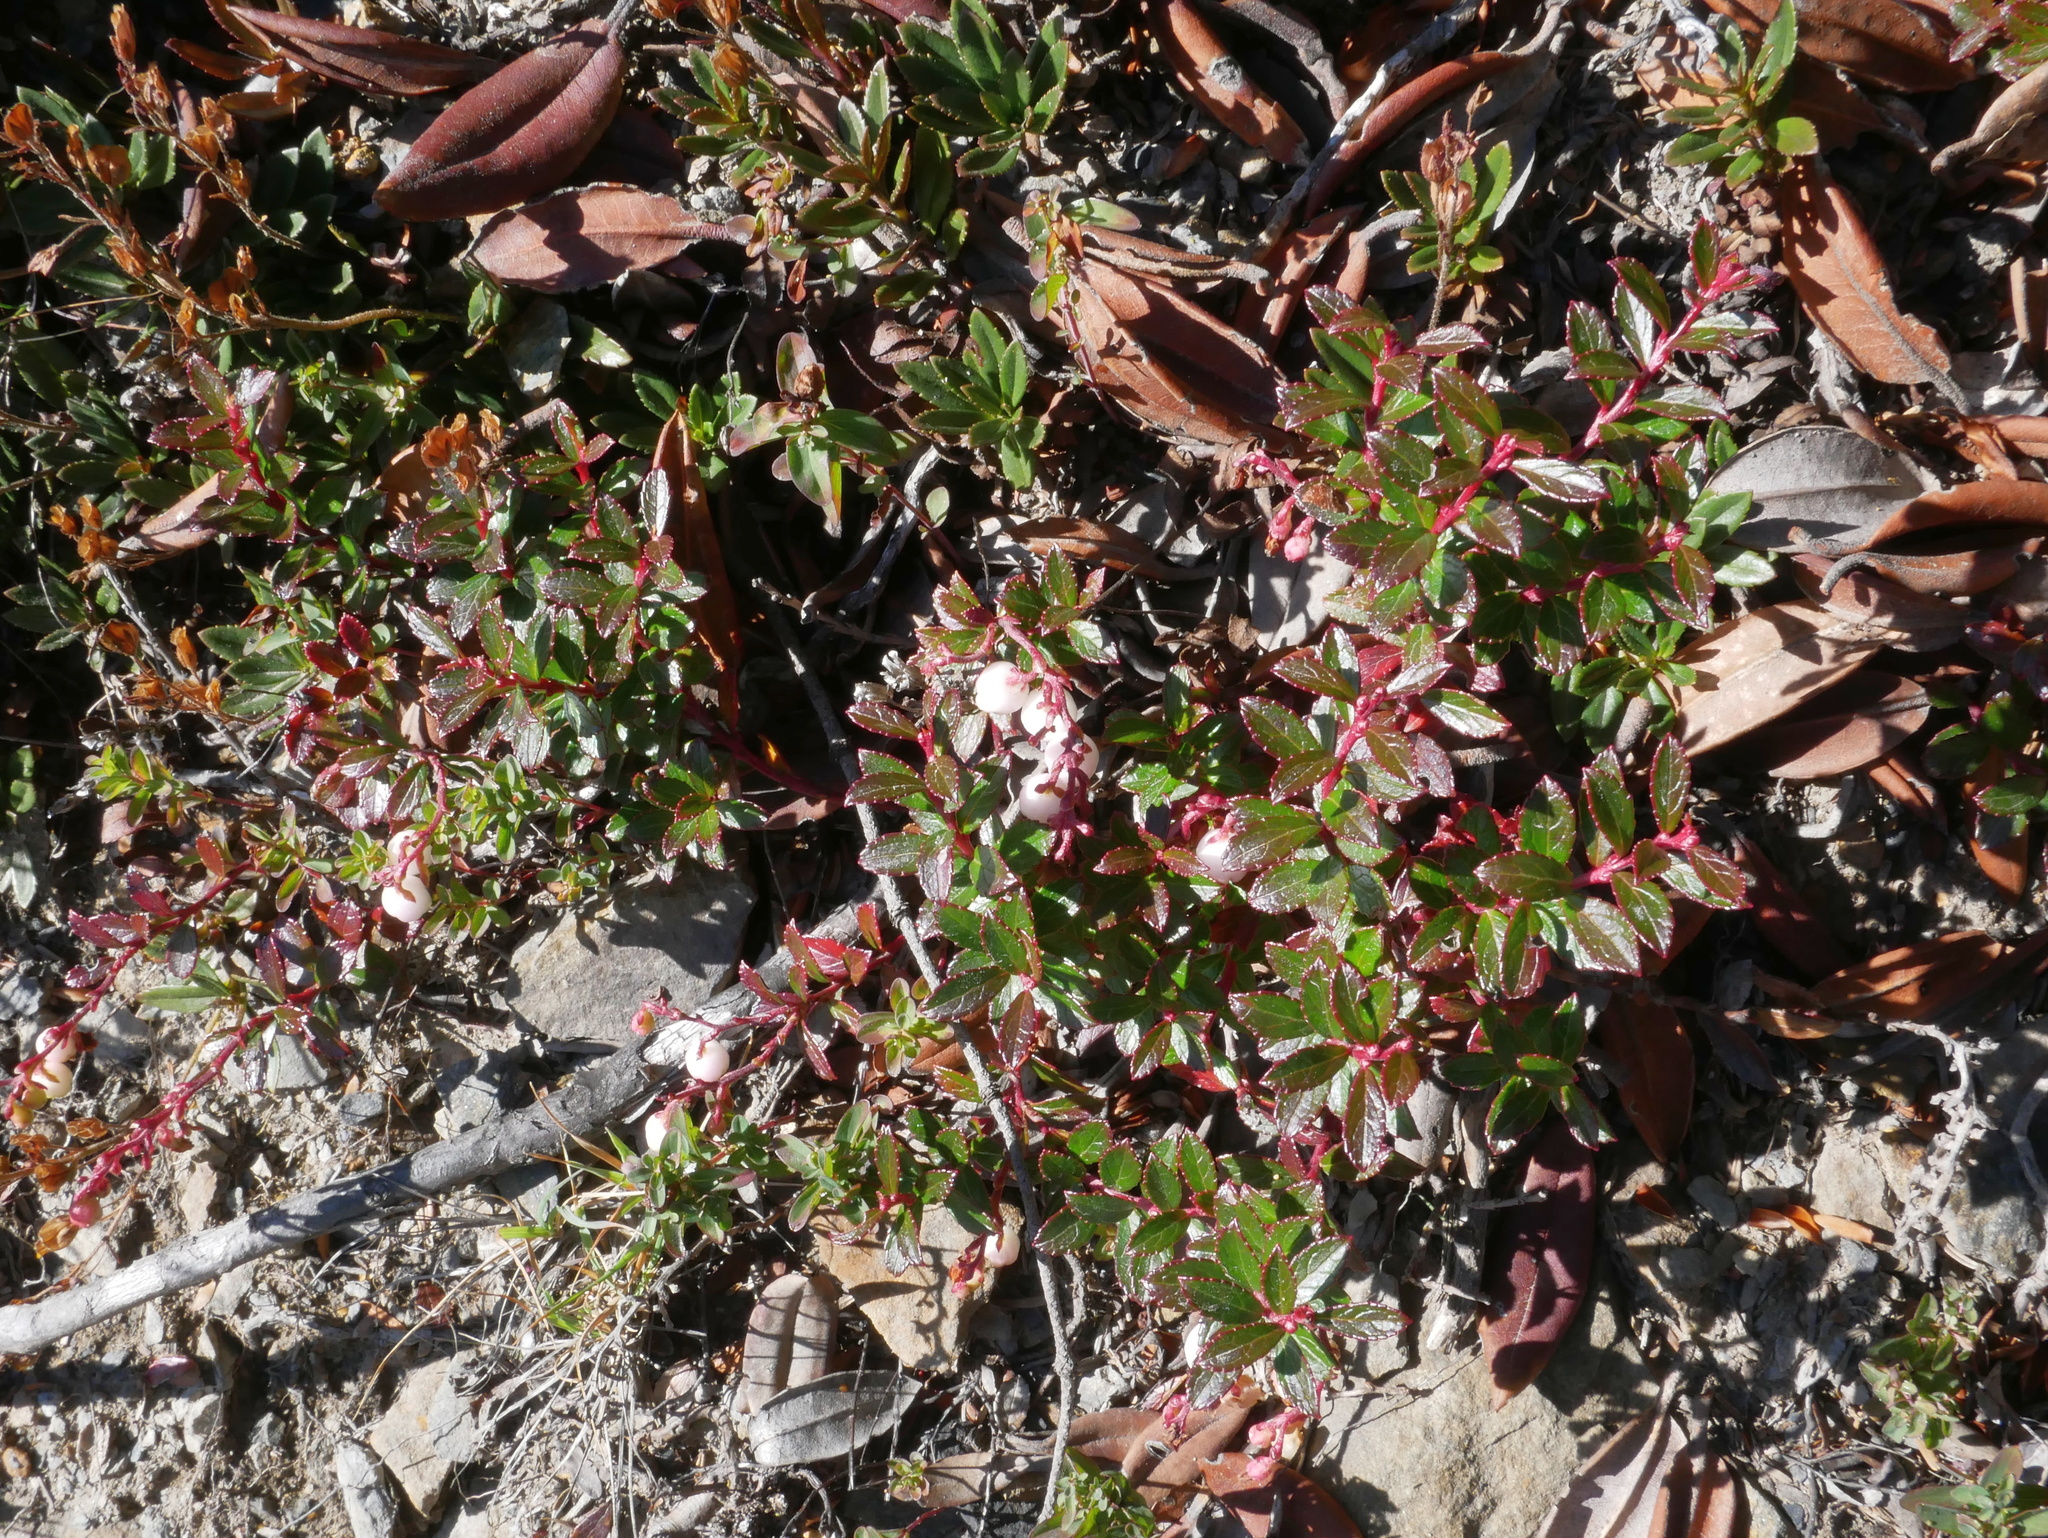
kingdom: Plantae
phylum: Tracheophyta
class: Magnoliopsida
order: Ericales
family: Ericaceae
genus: Gaultheria
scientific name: Gaultheria borneensis
